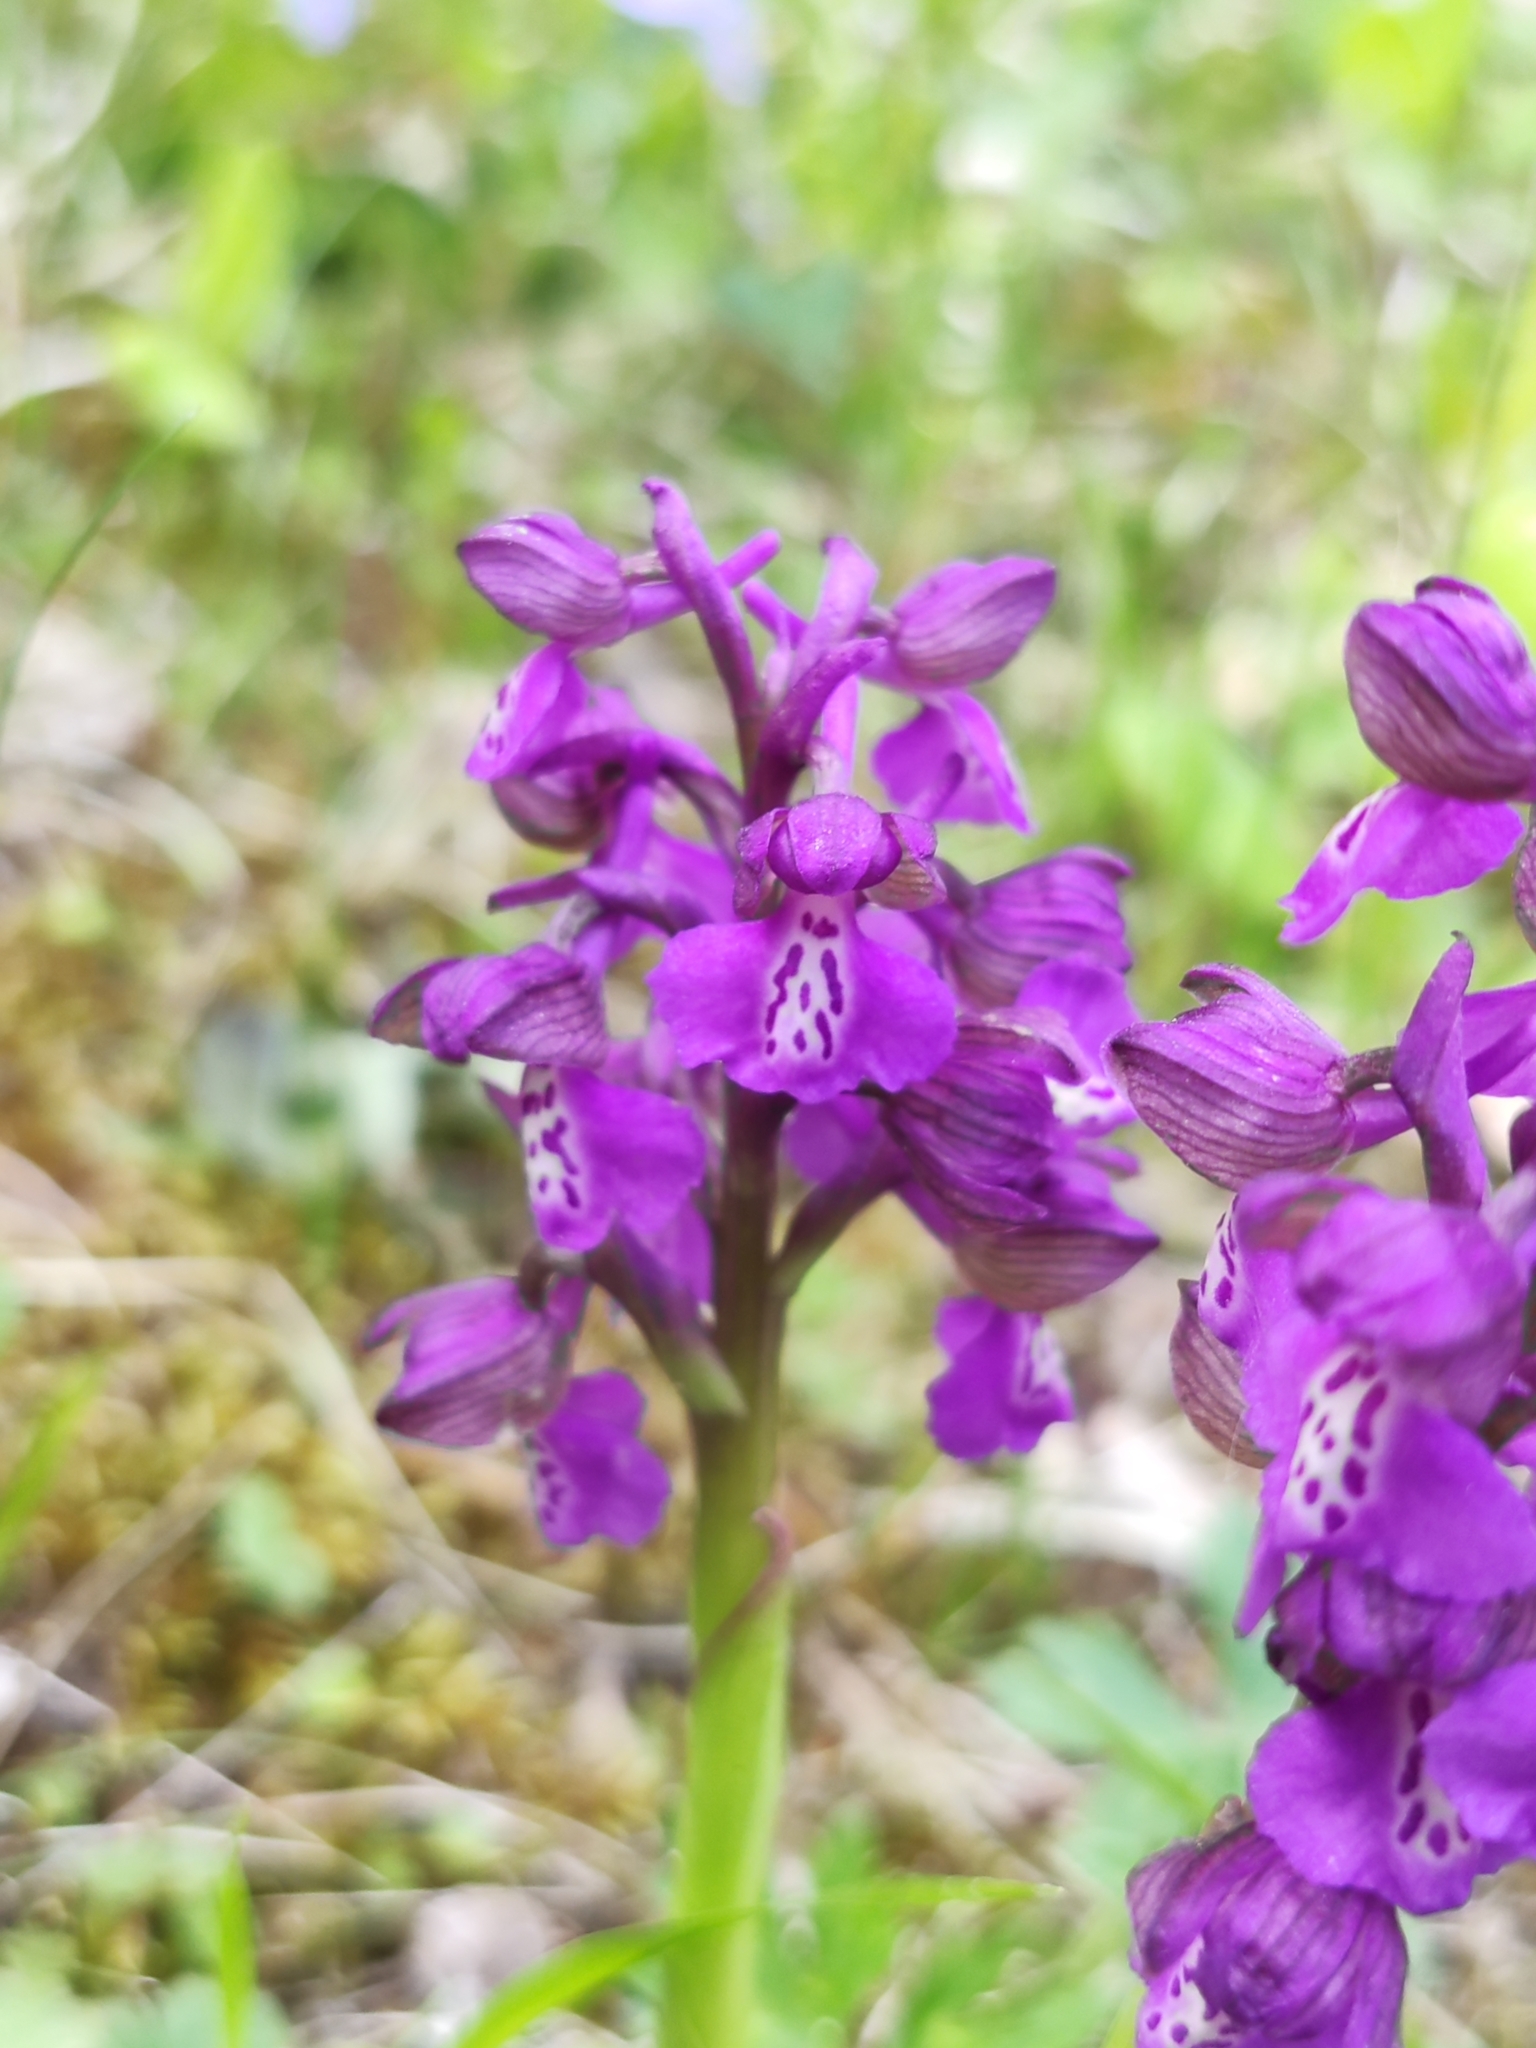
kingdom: Plantae
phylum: Tracheophyta
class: Liliopsida
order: Asparagales
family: Orchidaceae
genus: Anacamptis
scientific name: Anacamptis morio
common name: Green-winged orchid
